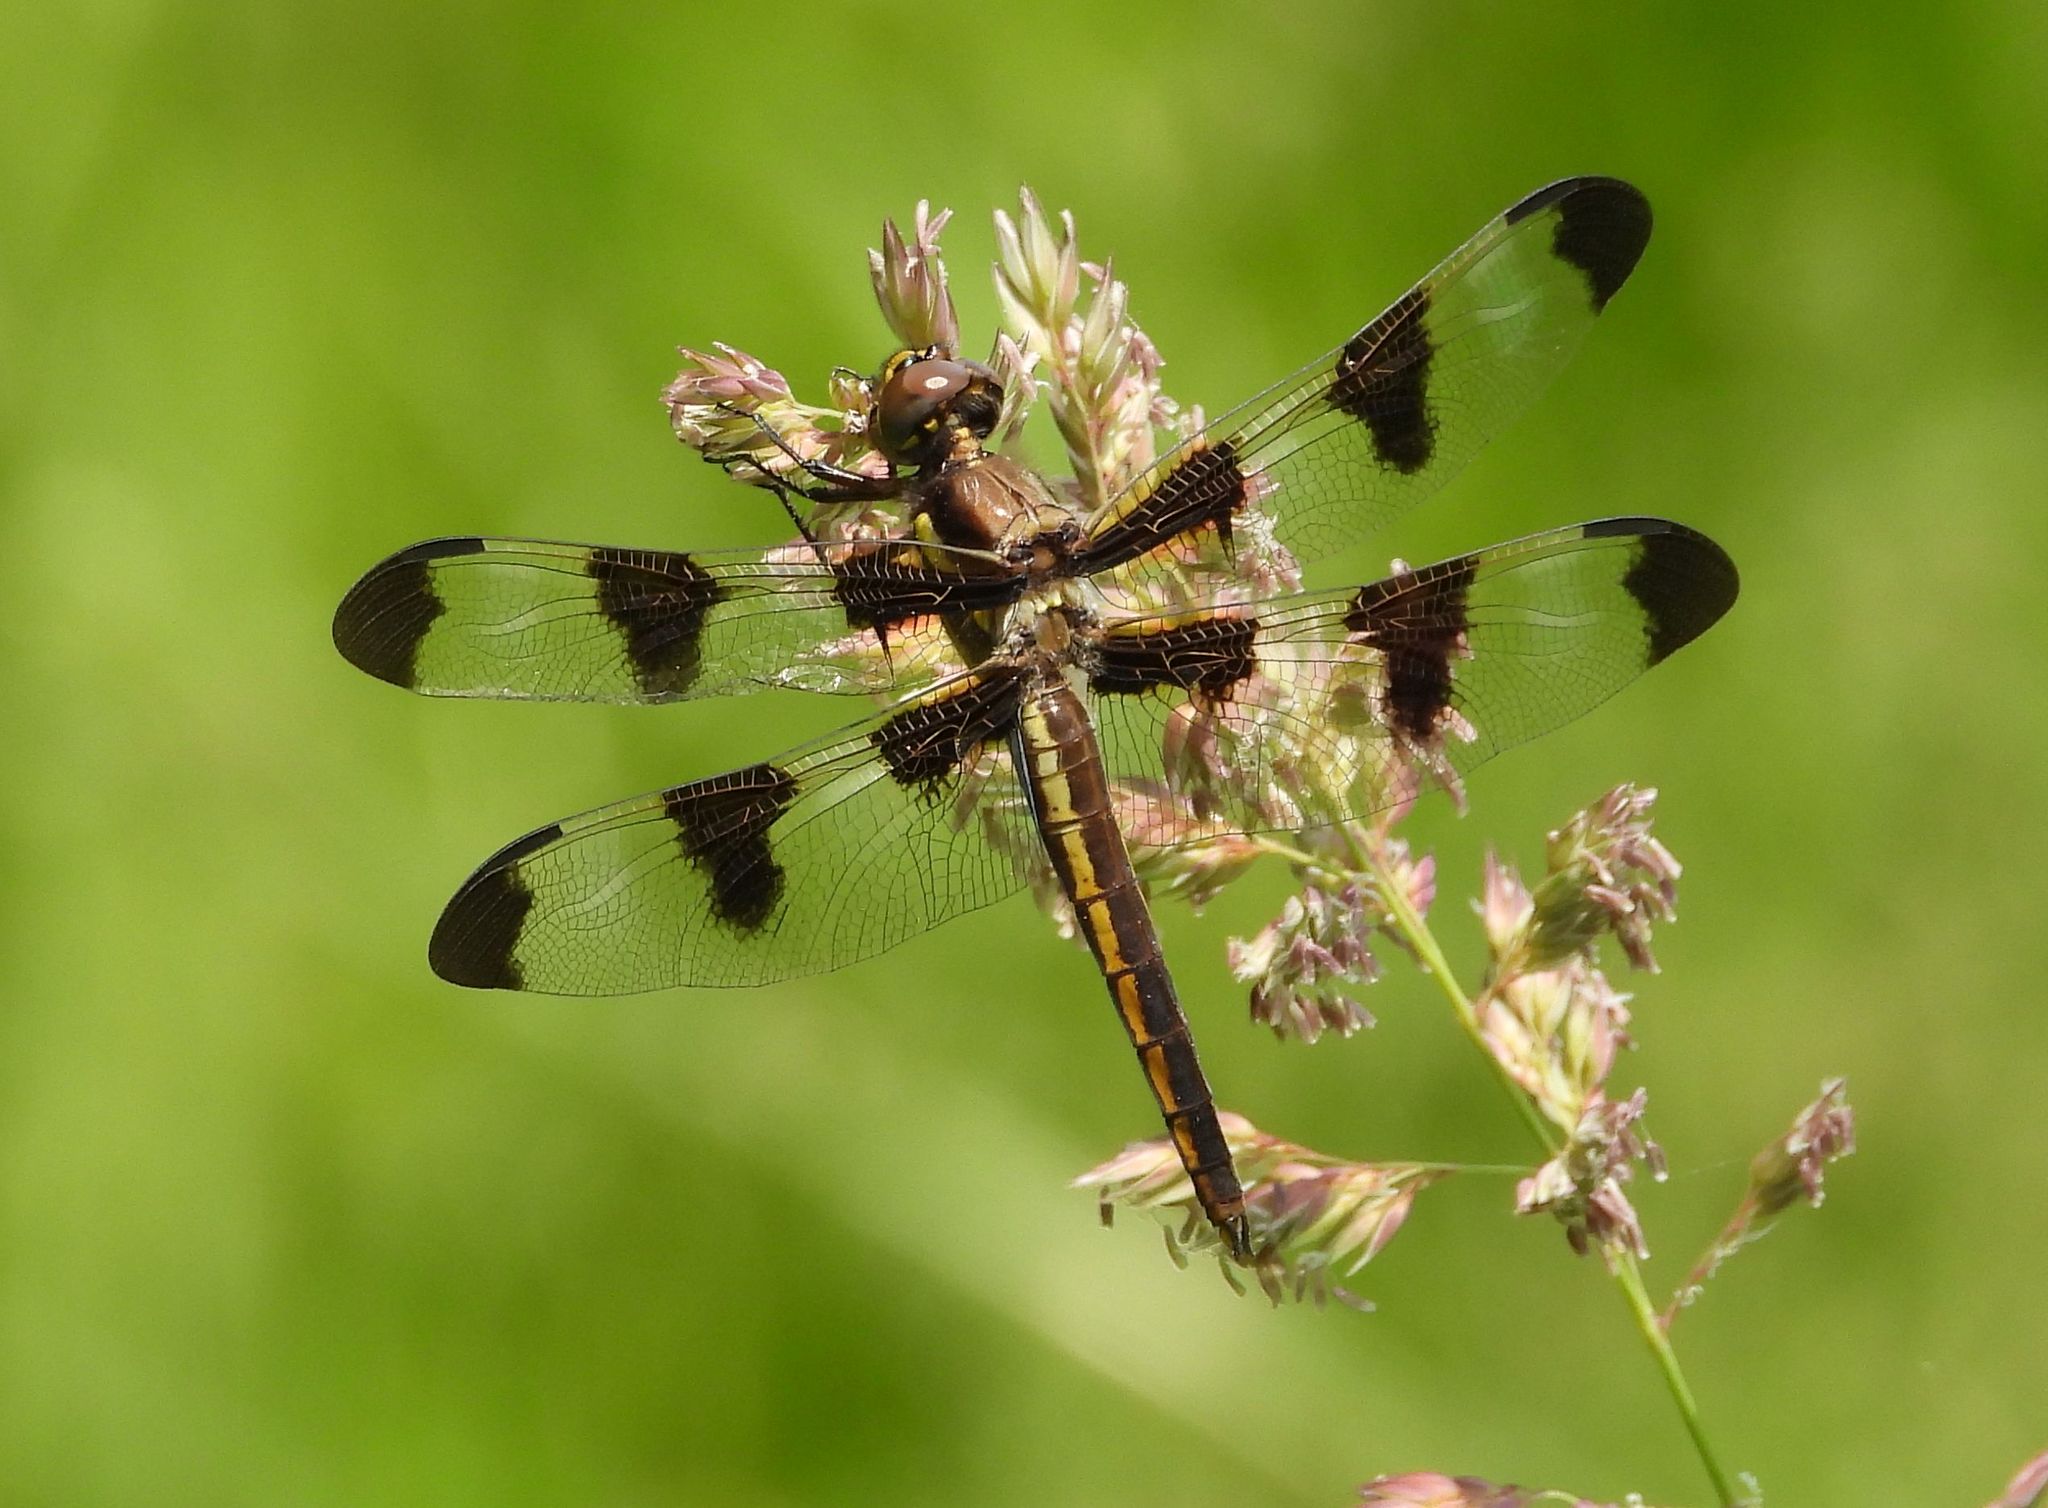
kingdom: Animalia
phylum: Arthropoda
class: Insecta
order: Odonata
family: Libellulidae
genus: Libellula
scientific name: Libellula pulchella
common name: Twelve-spotted skimmer
